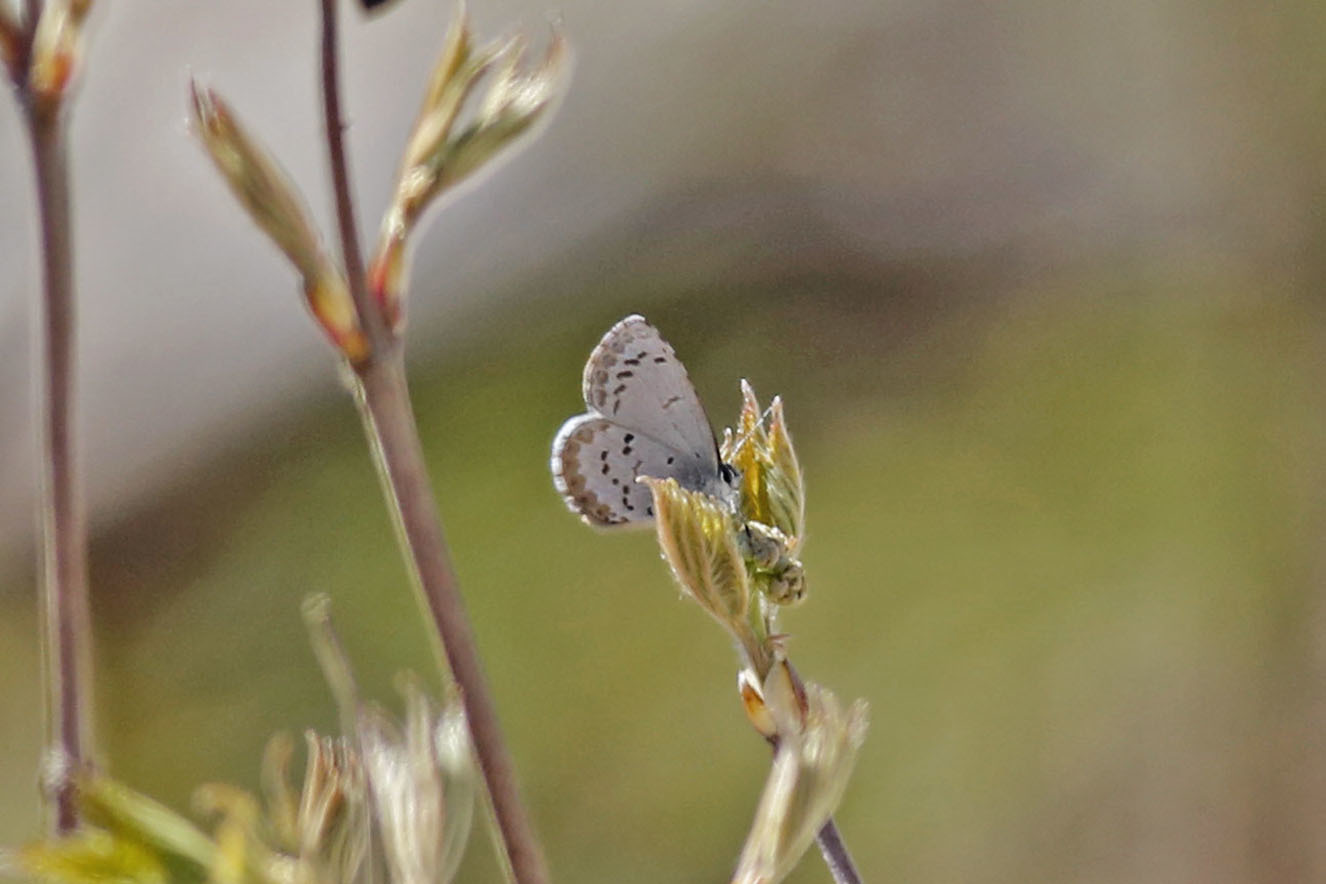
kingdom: Animalia
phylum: Arthropoda
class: Insecta
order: Lepidoptera
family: Lycaenidae
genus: Celastrina
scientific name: Celastrina ladon
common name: Spring azure
